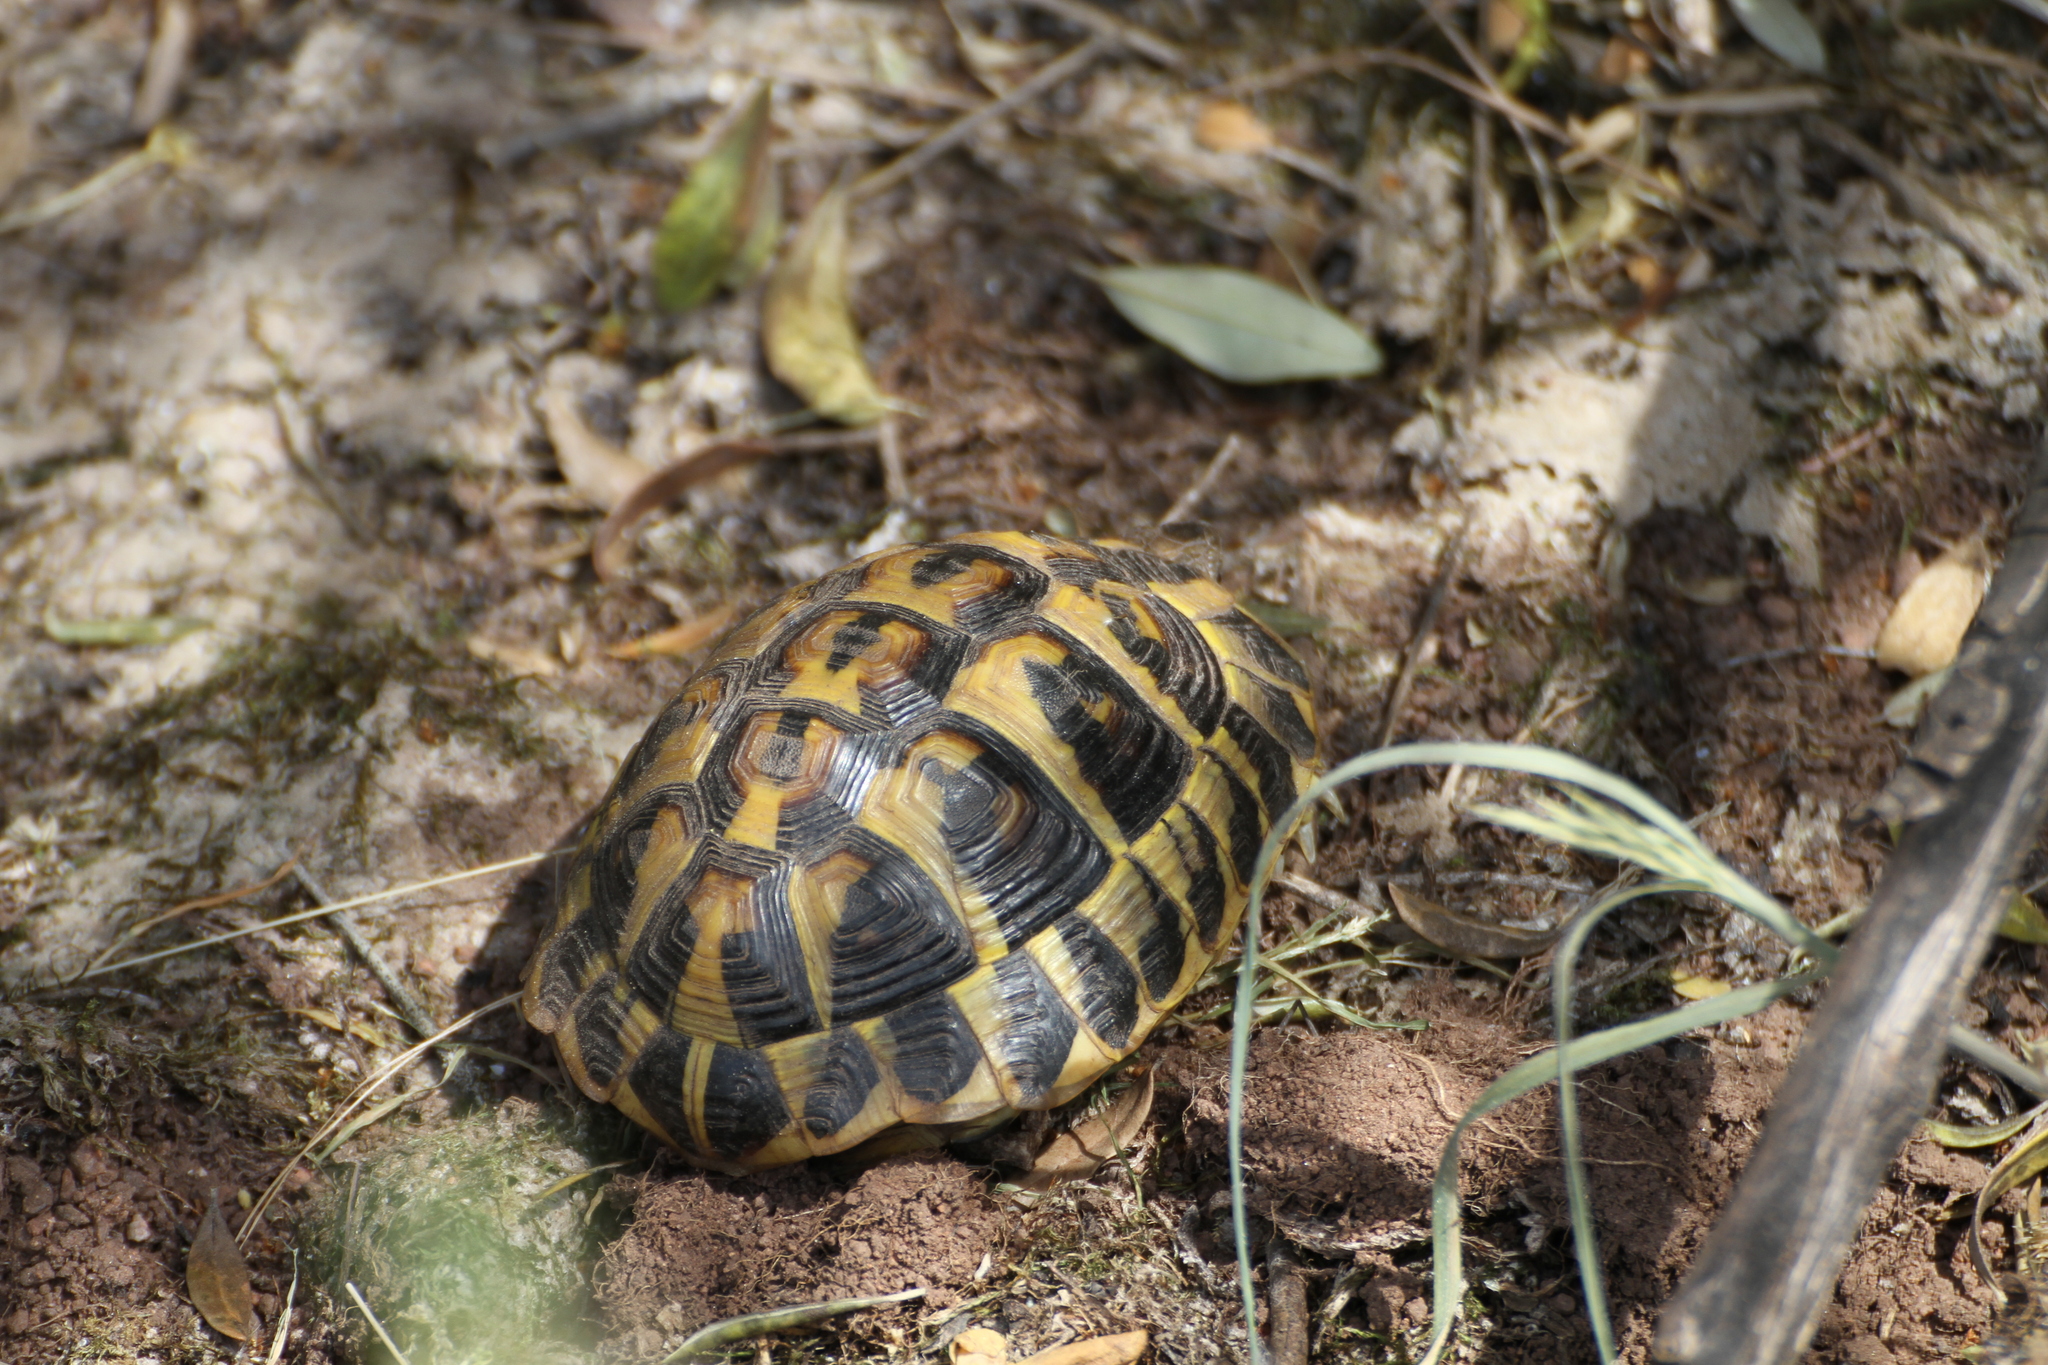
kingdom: Animalia
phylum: Chordata
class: Testudines
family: Testudinidae
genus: Testudo
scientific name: Testudo hermanni
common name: Hermann's tortoise
